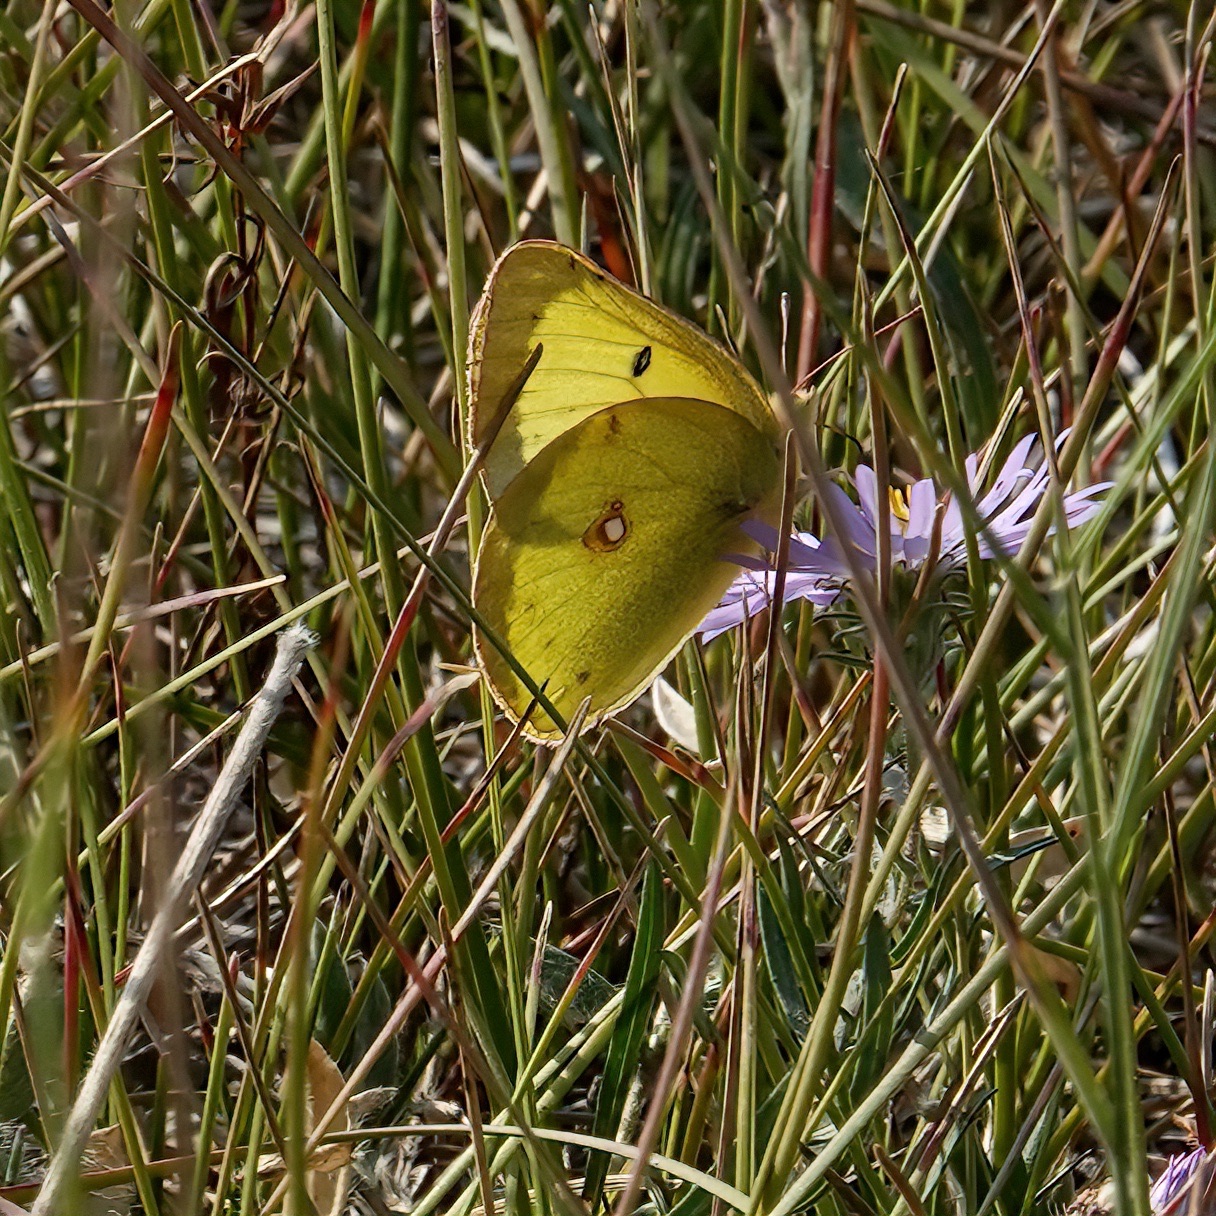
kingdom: Animalia
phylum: Arthropoda
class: Insecta
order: Lepidoptera
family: Pieridae
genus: Colias
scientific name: Colias philodice
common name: Clouded sulphur
